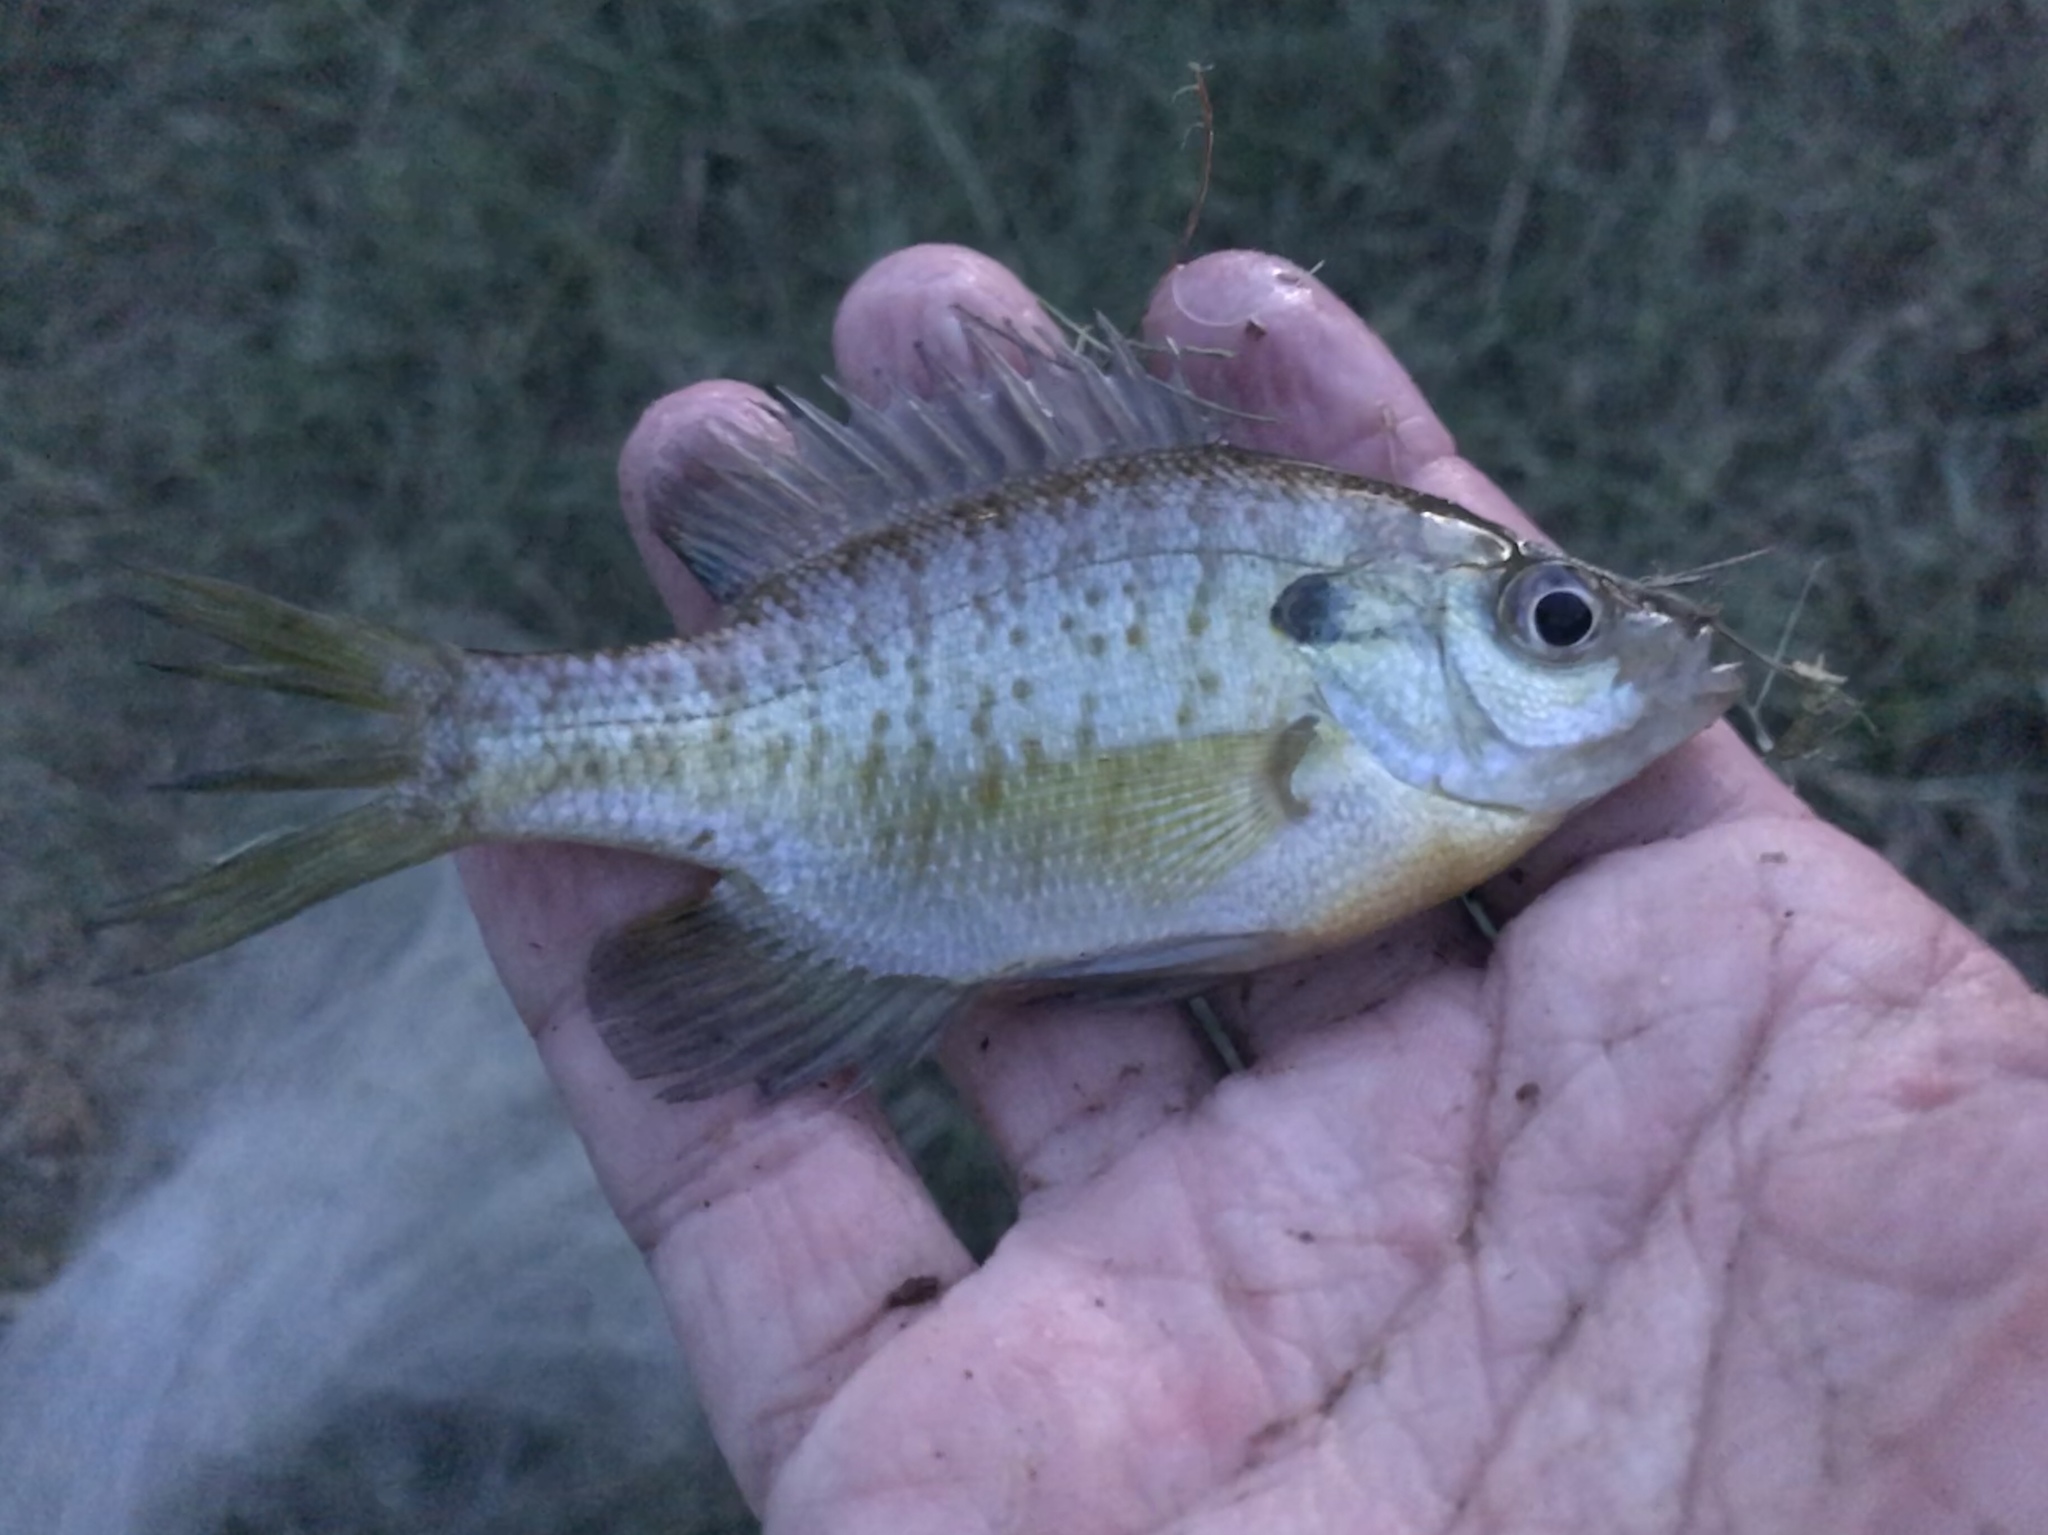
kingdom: Animalia
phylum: Chordata
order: Perciformes
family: Centrarchidae
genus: Lepomis
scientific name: Lepomis macrochirus
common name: Bluegill
